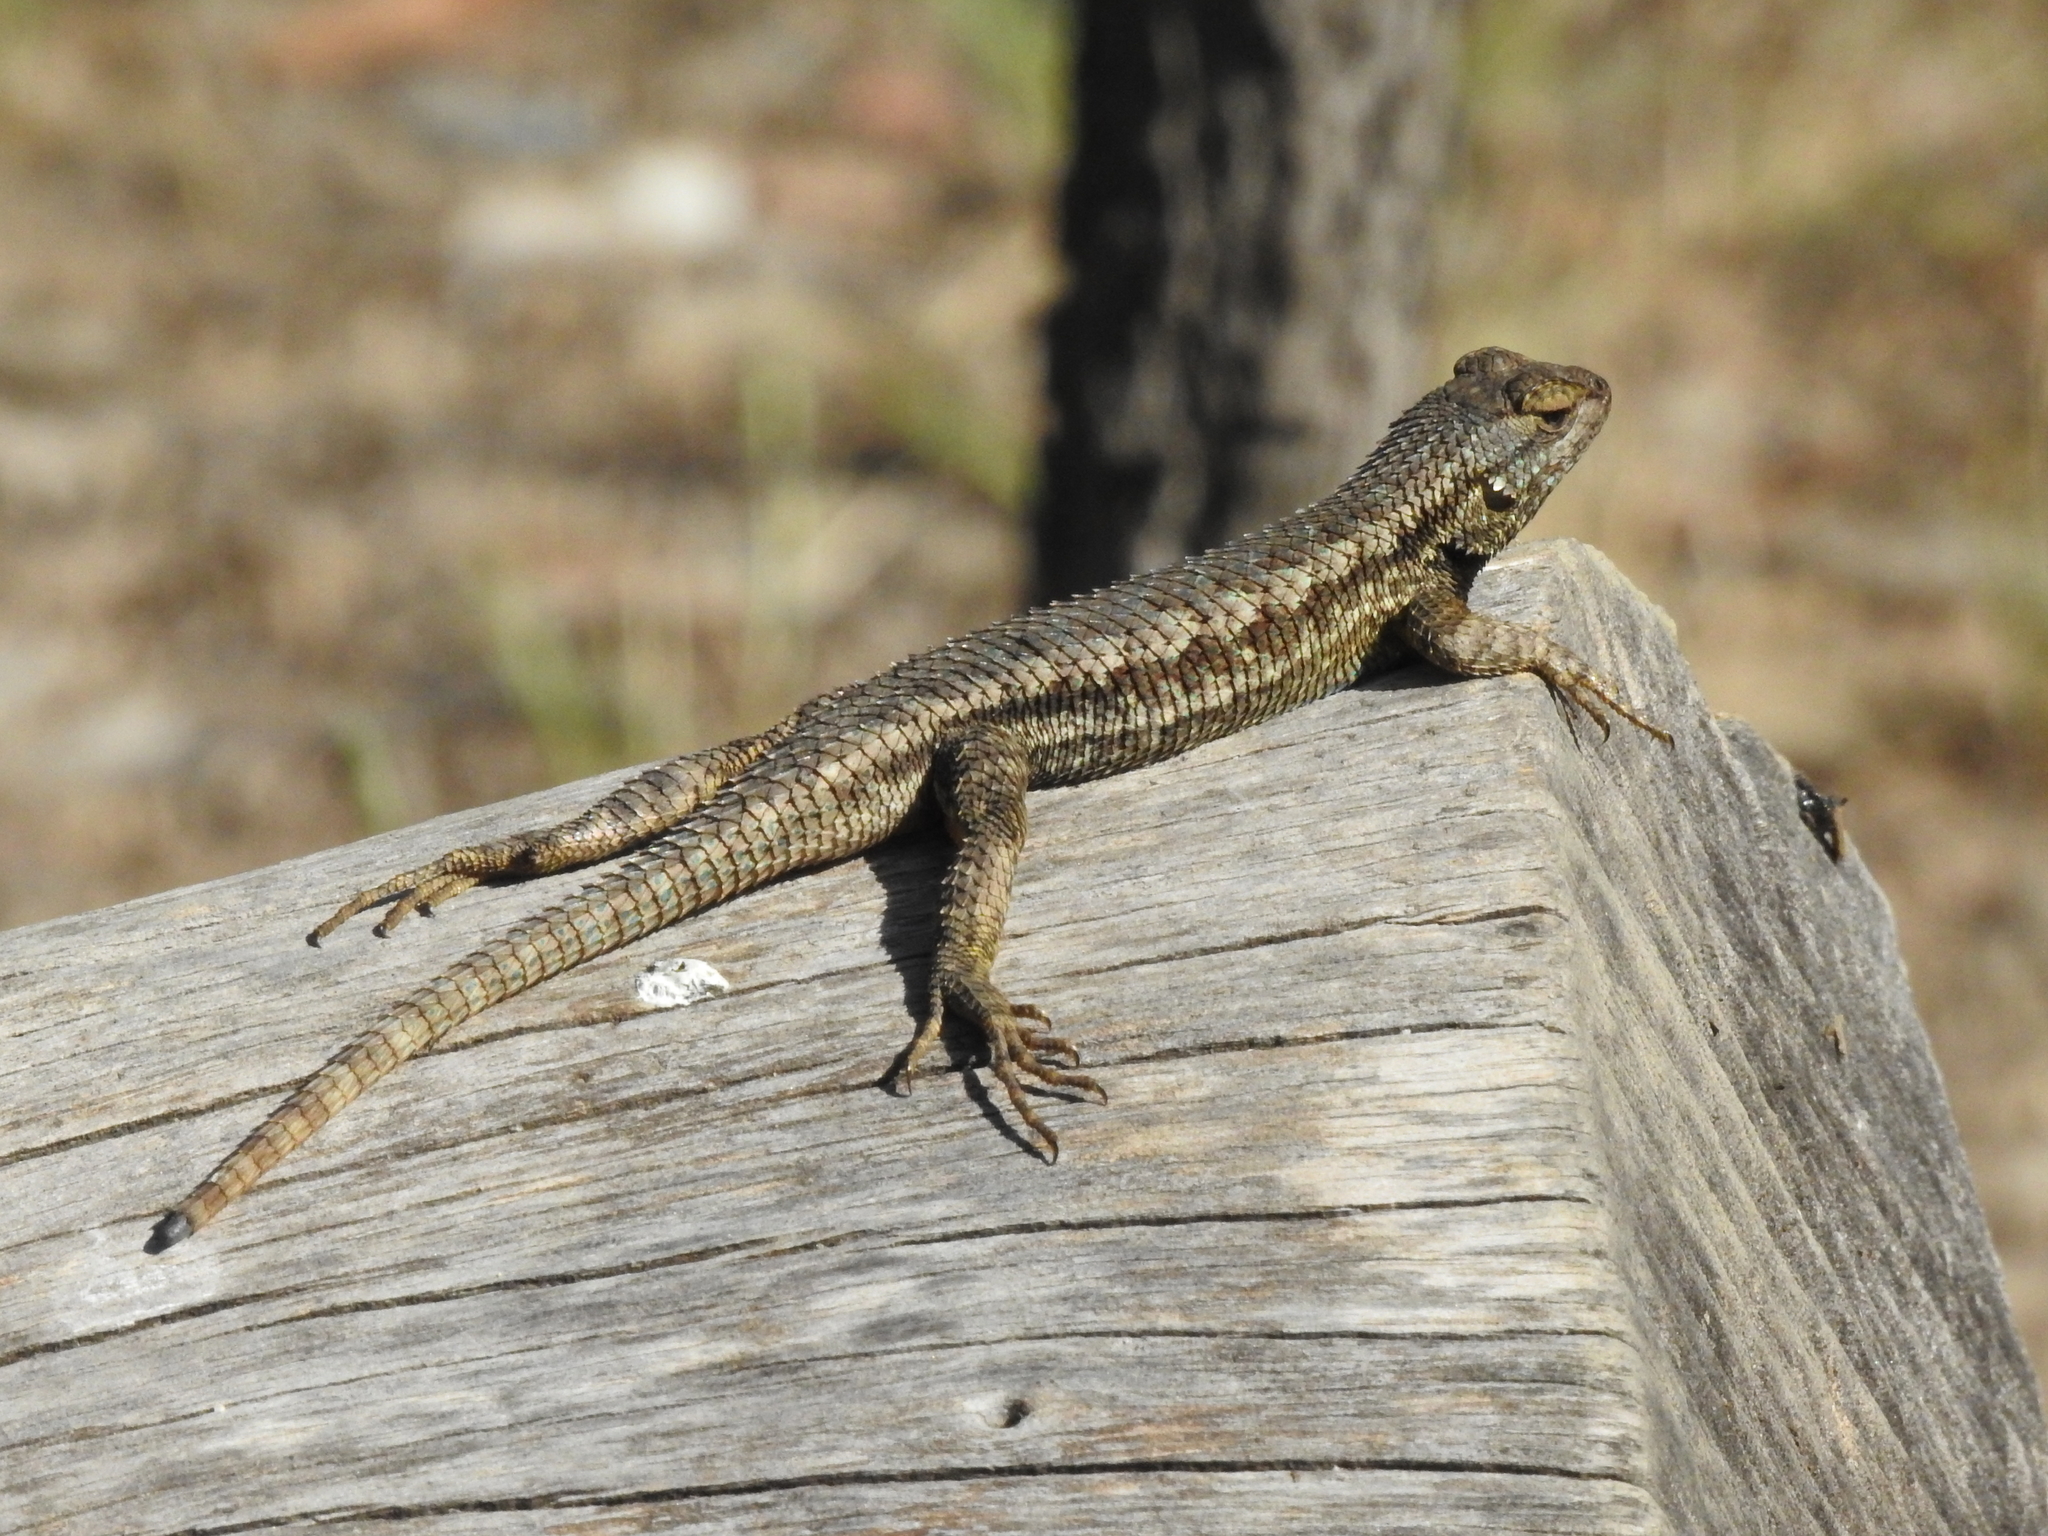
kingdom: Animalia
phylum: Chordata
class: Squamata
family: Phrynosomatidae
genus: Sceloporus
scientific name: Sceloporus occidentalis
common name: Western fence lizard
